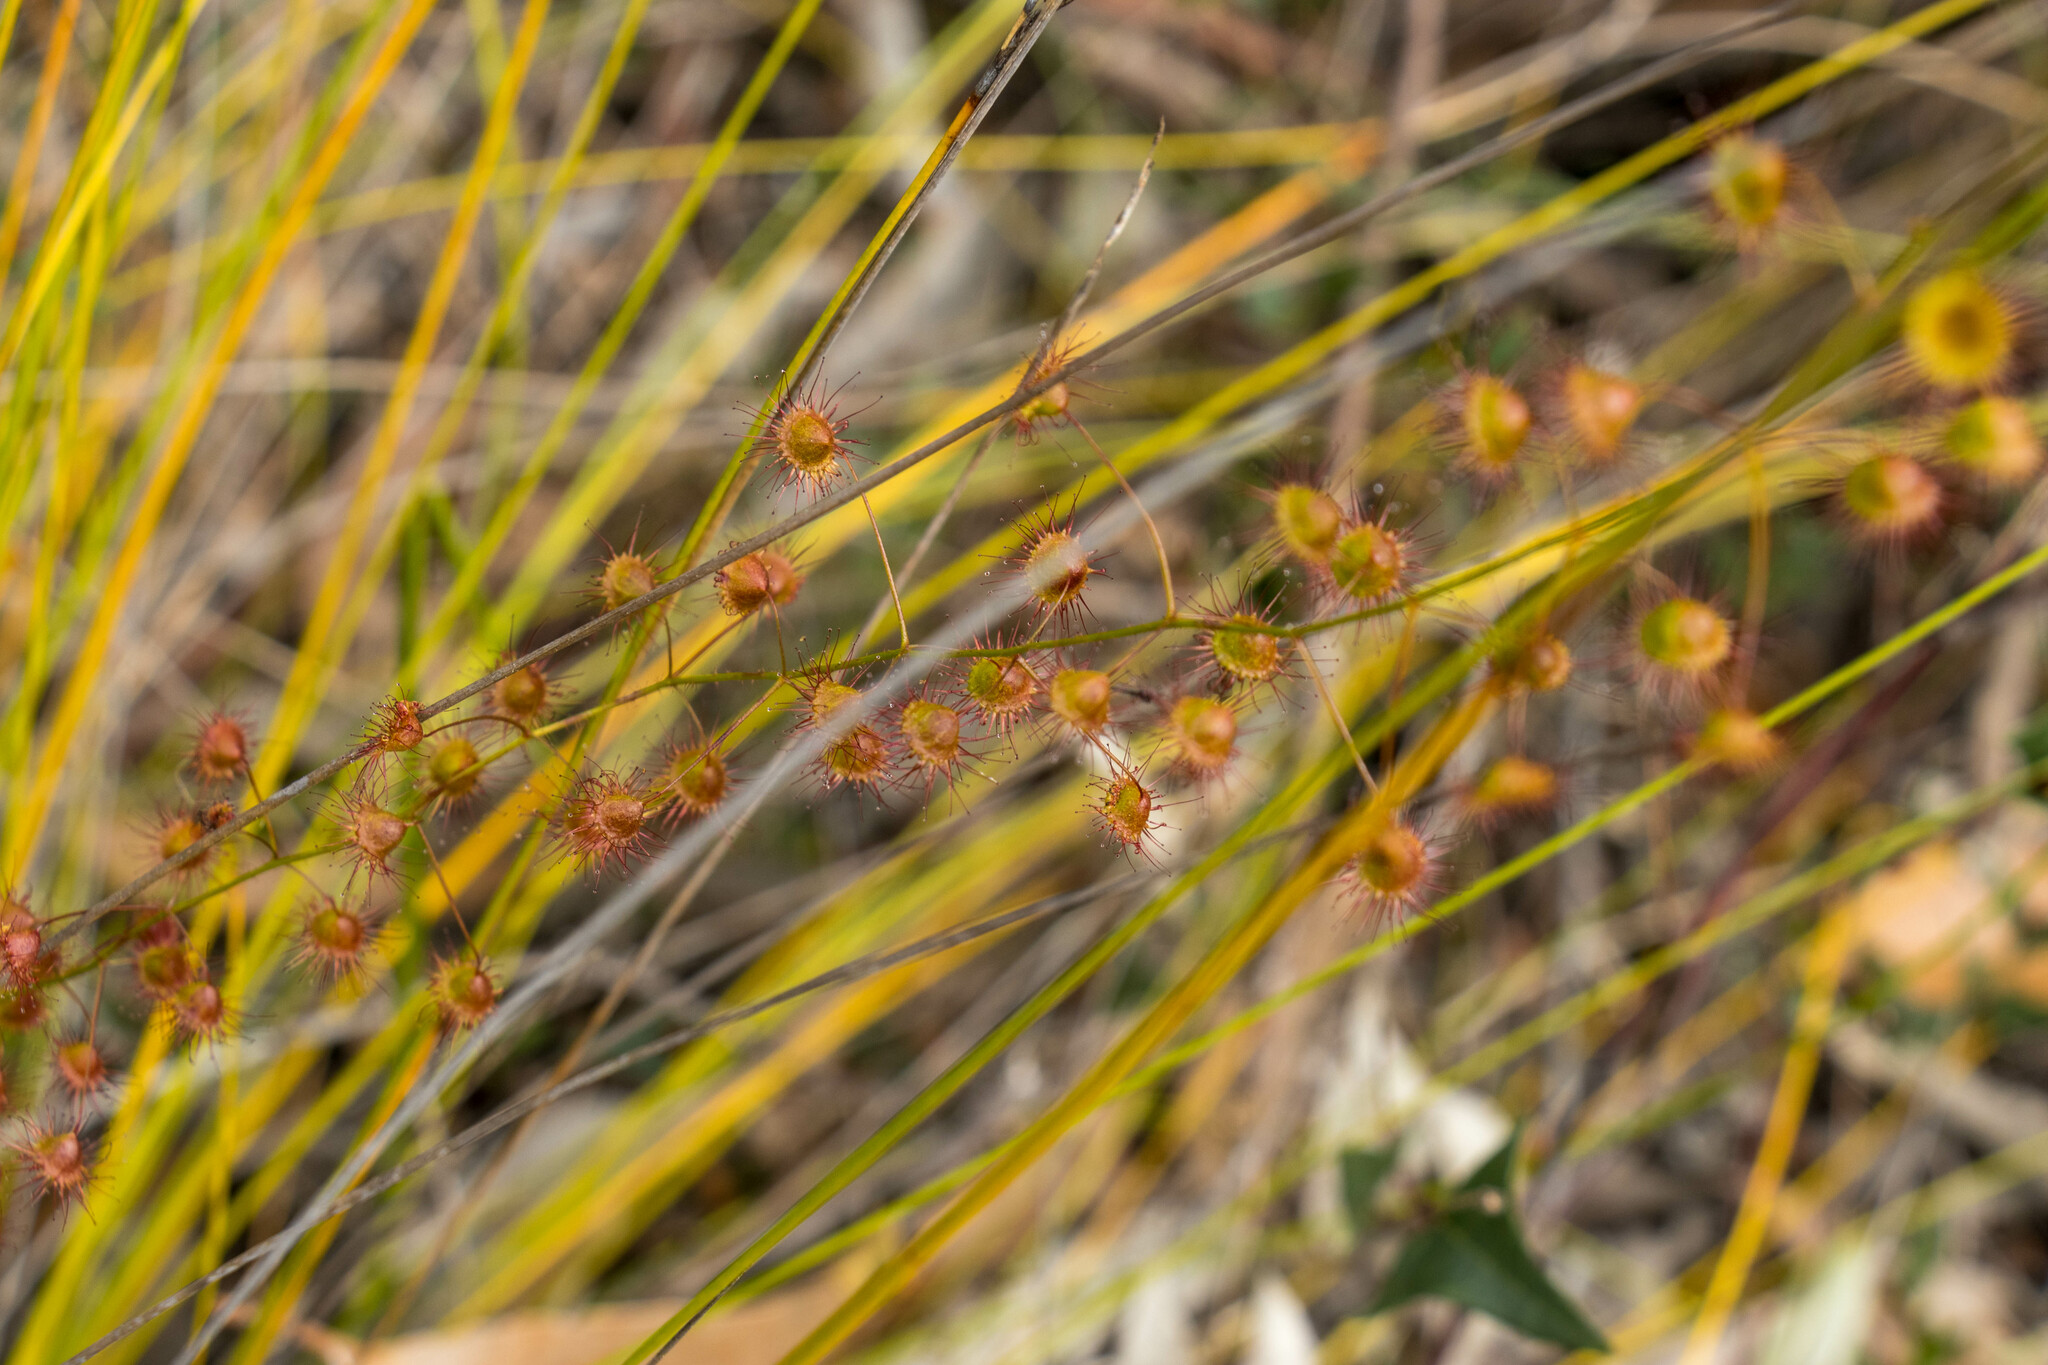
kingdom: Plantae
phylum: Tracheophyta
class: Magnoliopsida
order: Caryophyllales
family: Droseraceae
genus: Drosera
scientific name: Drosera planchonii
